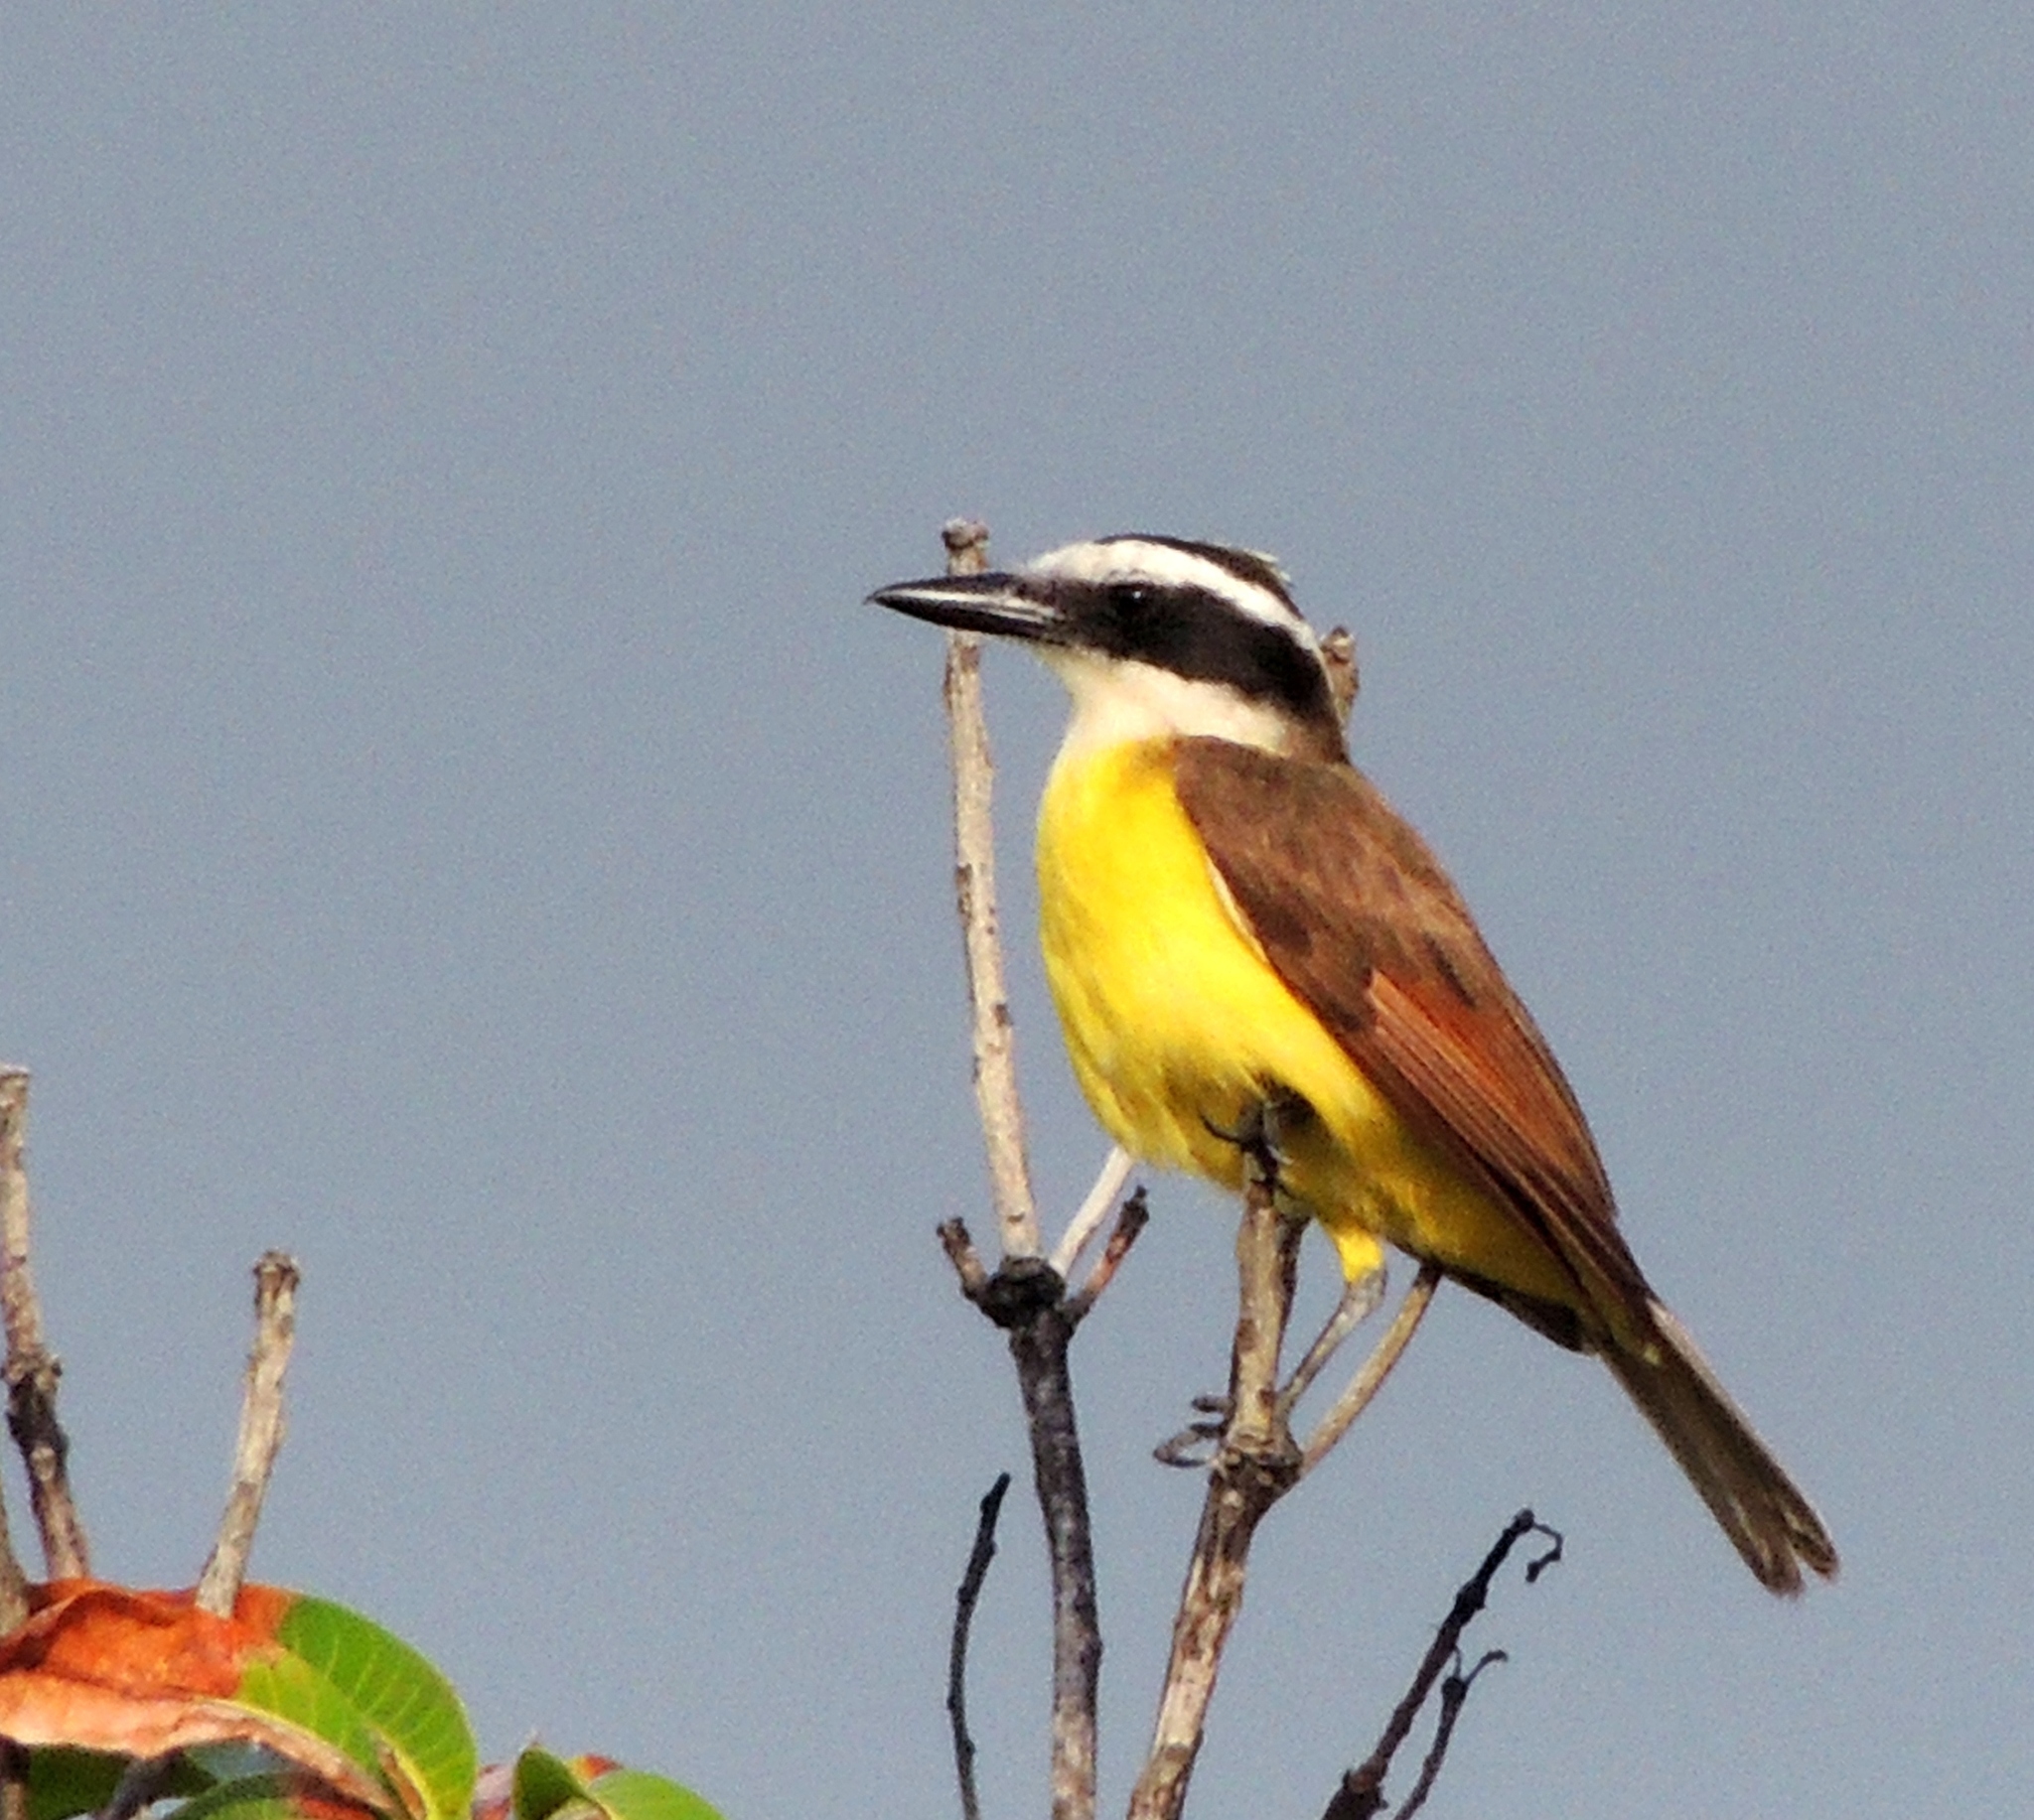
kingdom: Animalia
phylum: Chordata
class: Aves
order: Passeriformes
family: Tyrannidae
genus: Pitangus
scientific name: Pitangus sulphuratus
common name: Great kiskadee
